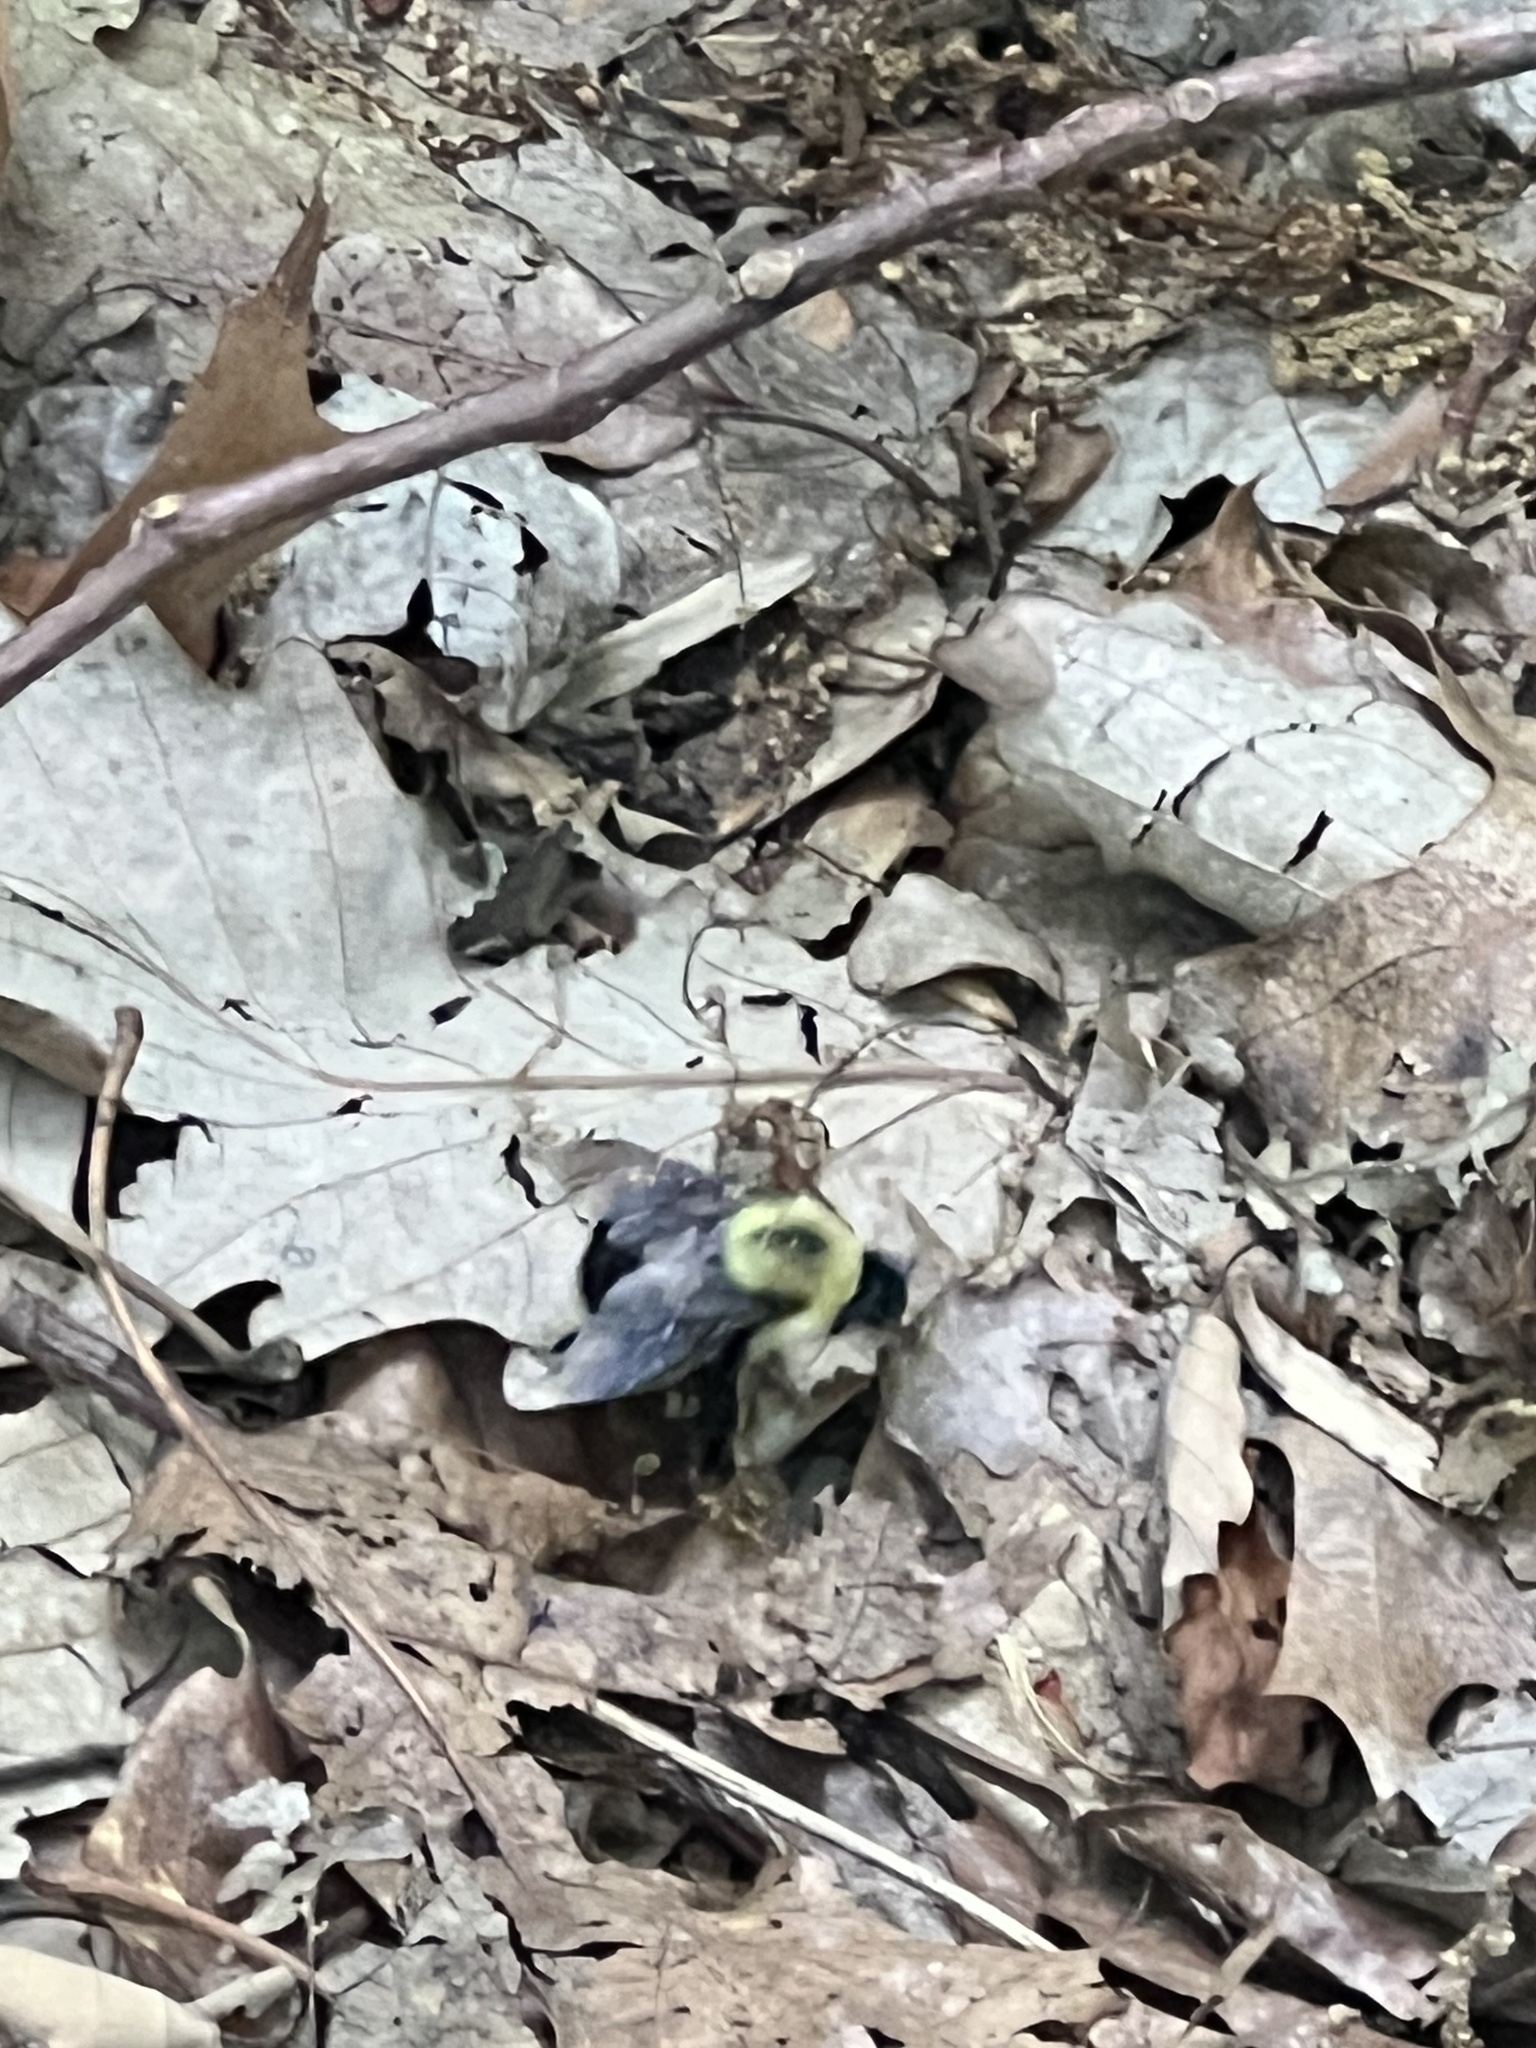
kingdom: Animalia
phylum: Arthropoda
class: Insecta
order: Hymenoptera
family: Apidae
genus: Bombus
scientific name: Bombus
